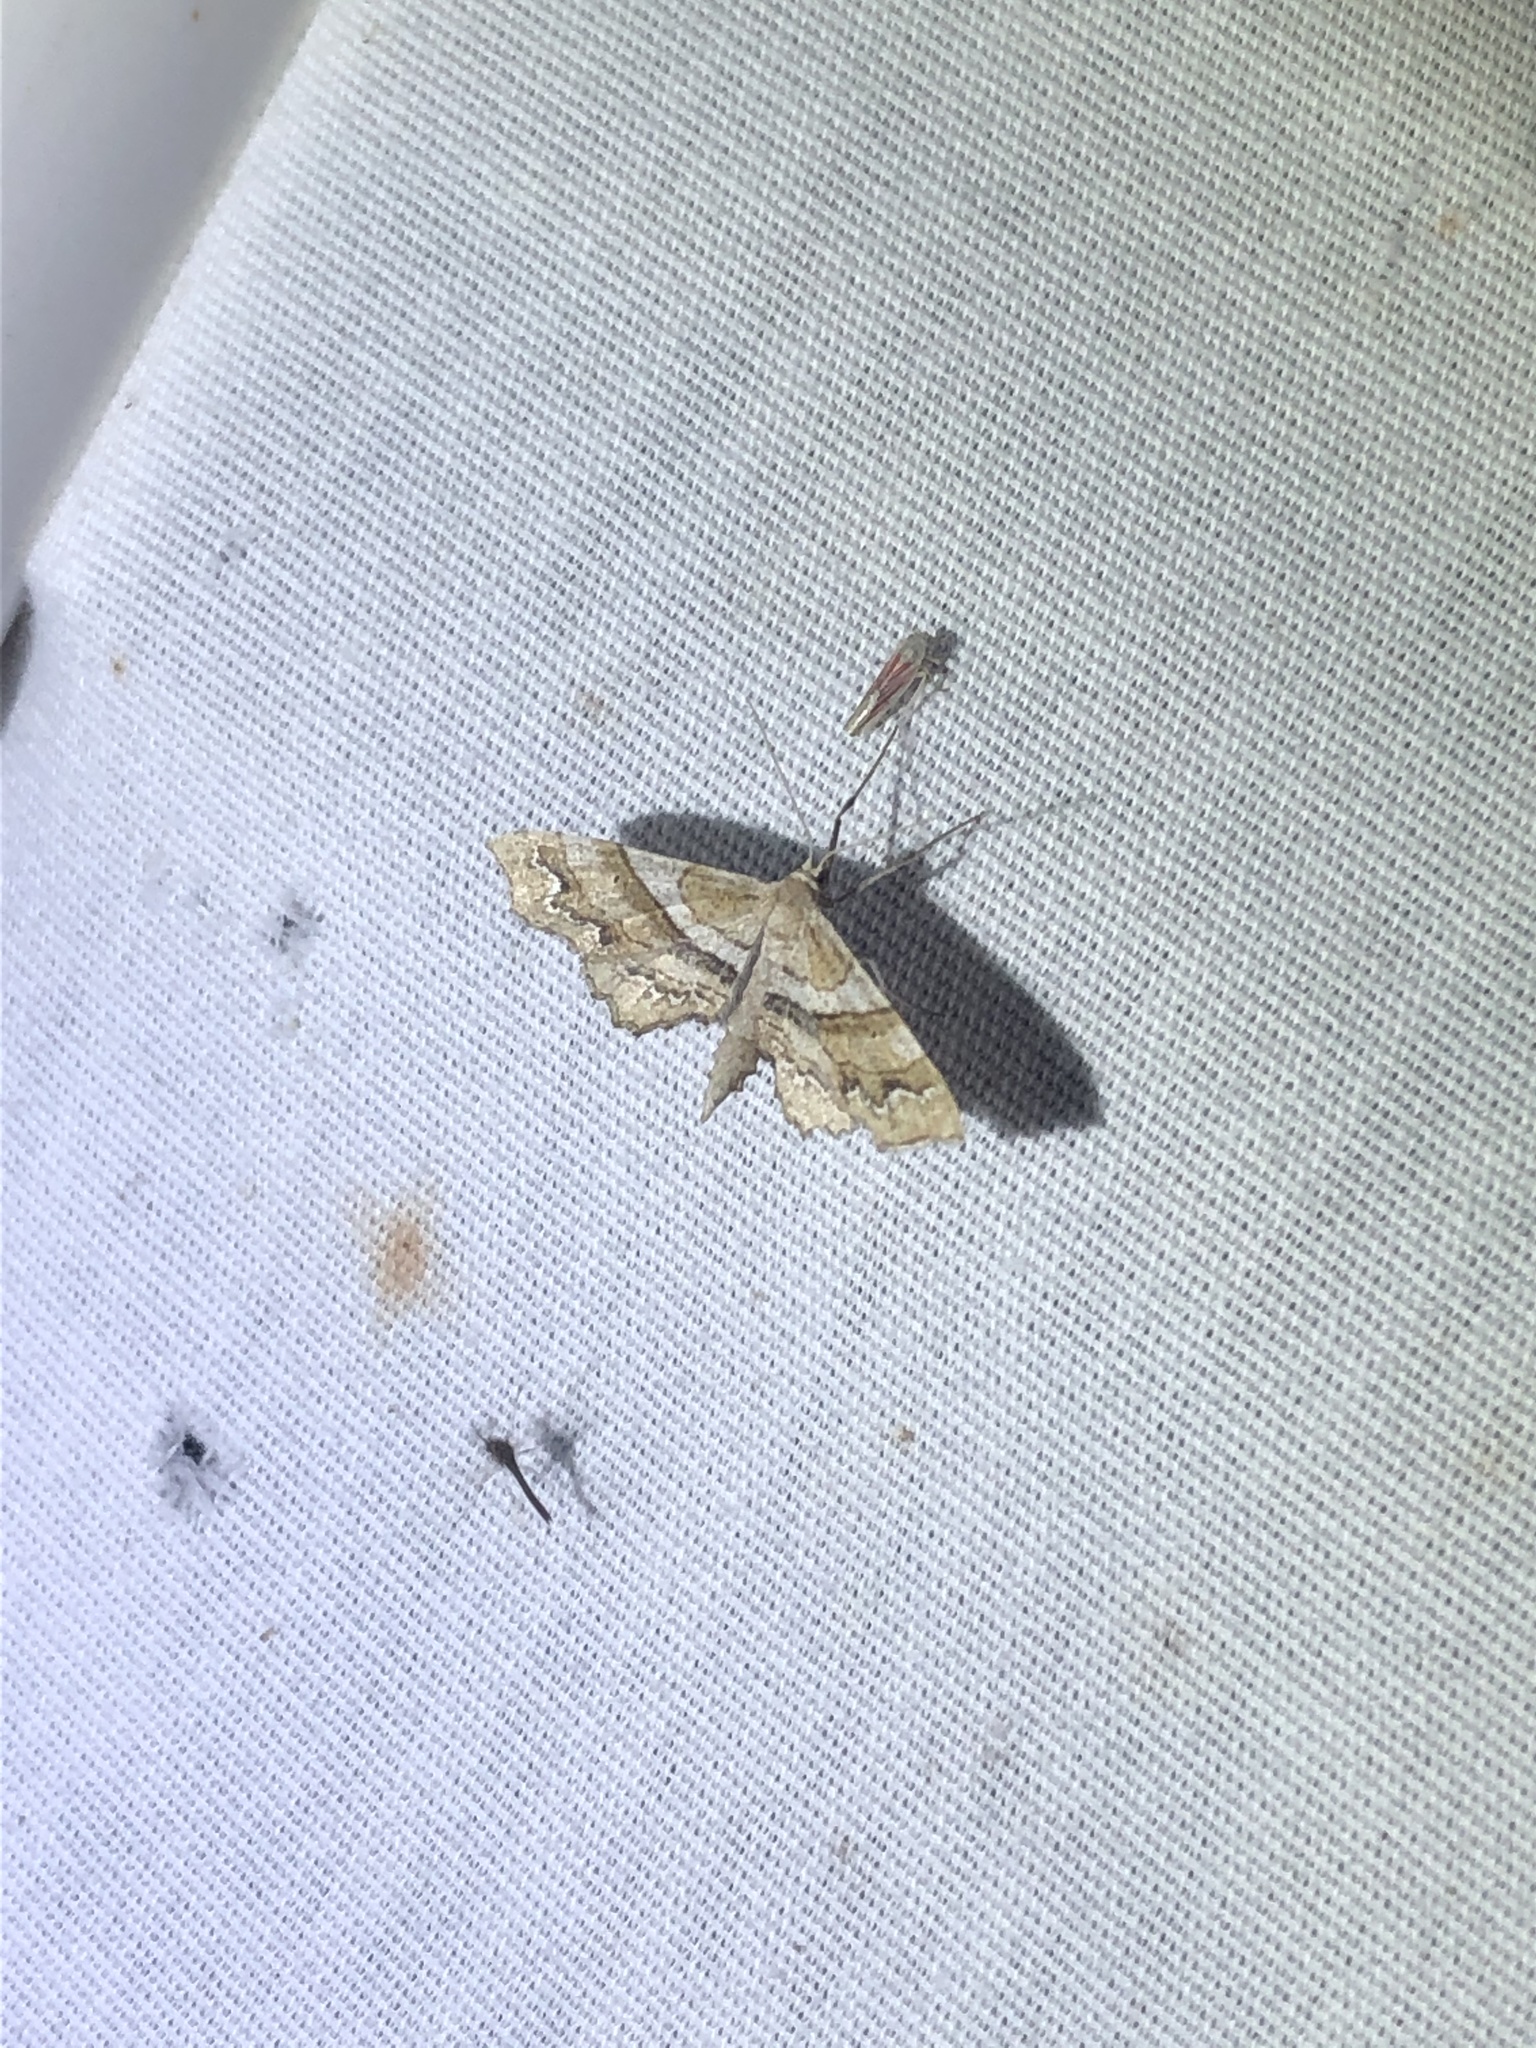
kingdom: Animalia
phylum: Arthropoda
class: Insecta
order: Lepidoptera
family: Geometridae
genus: Odontoptila
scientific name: Odontoptila obrimo
